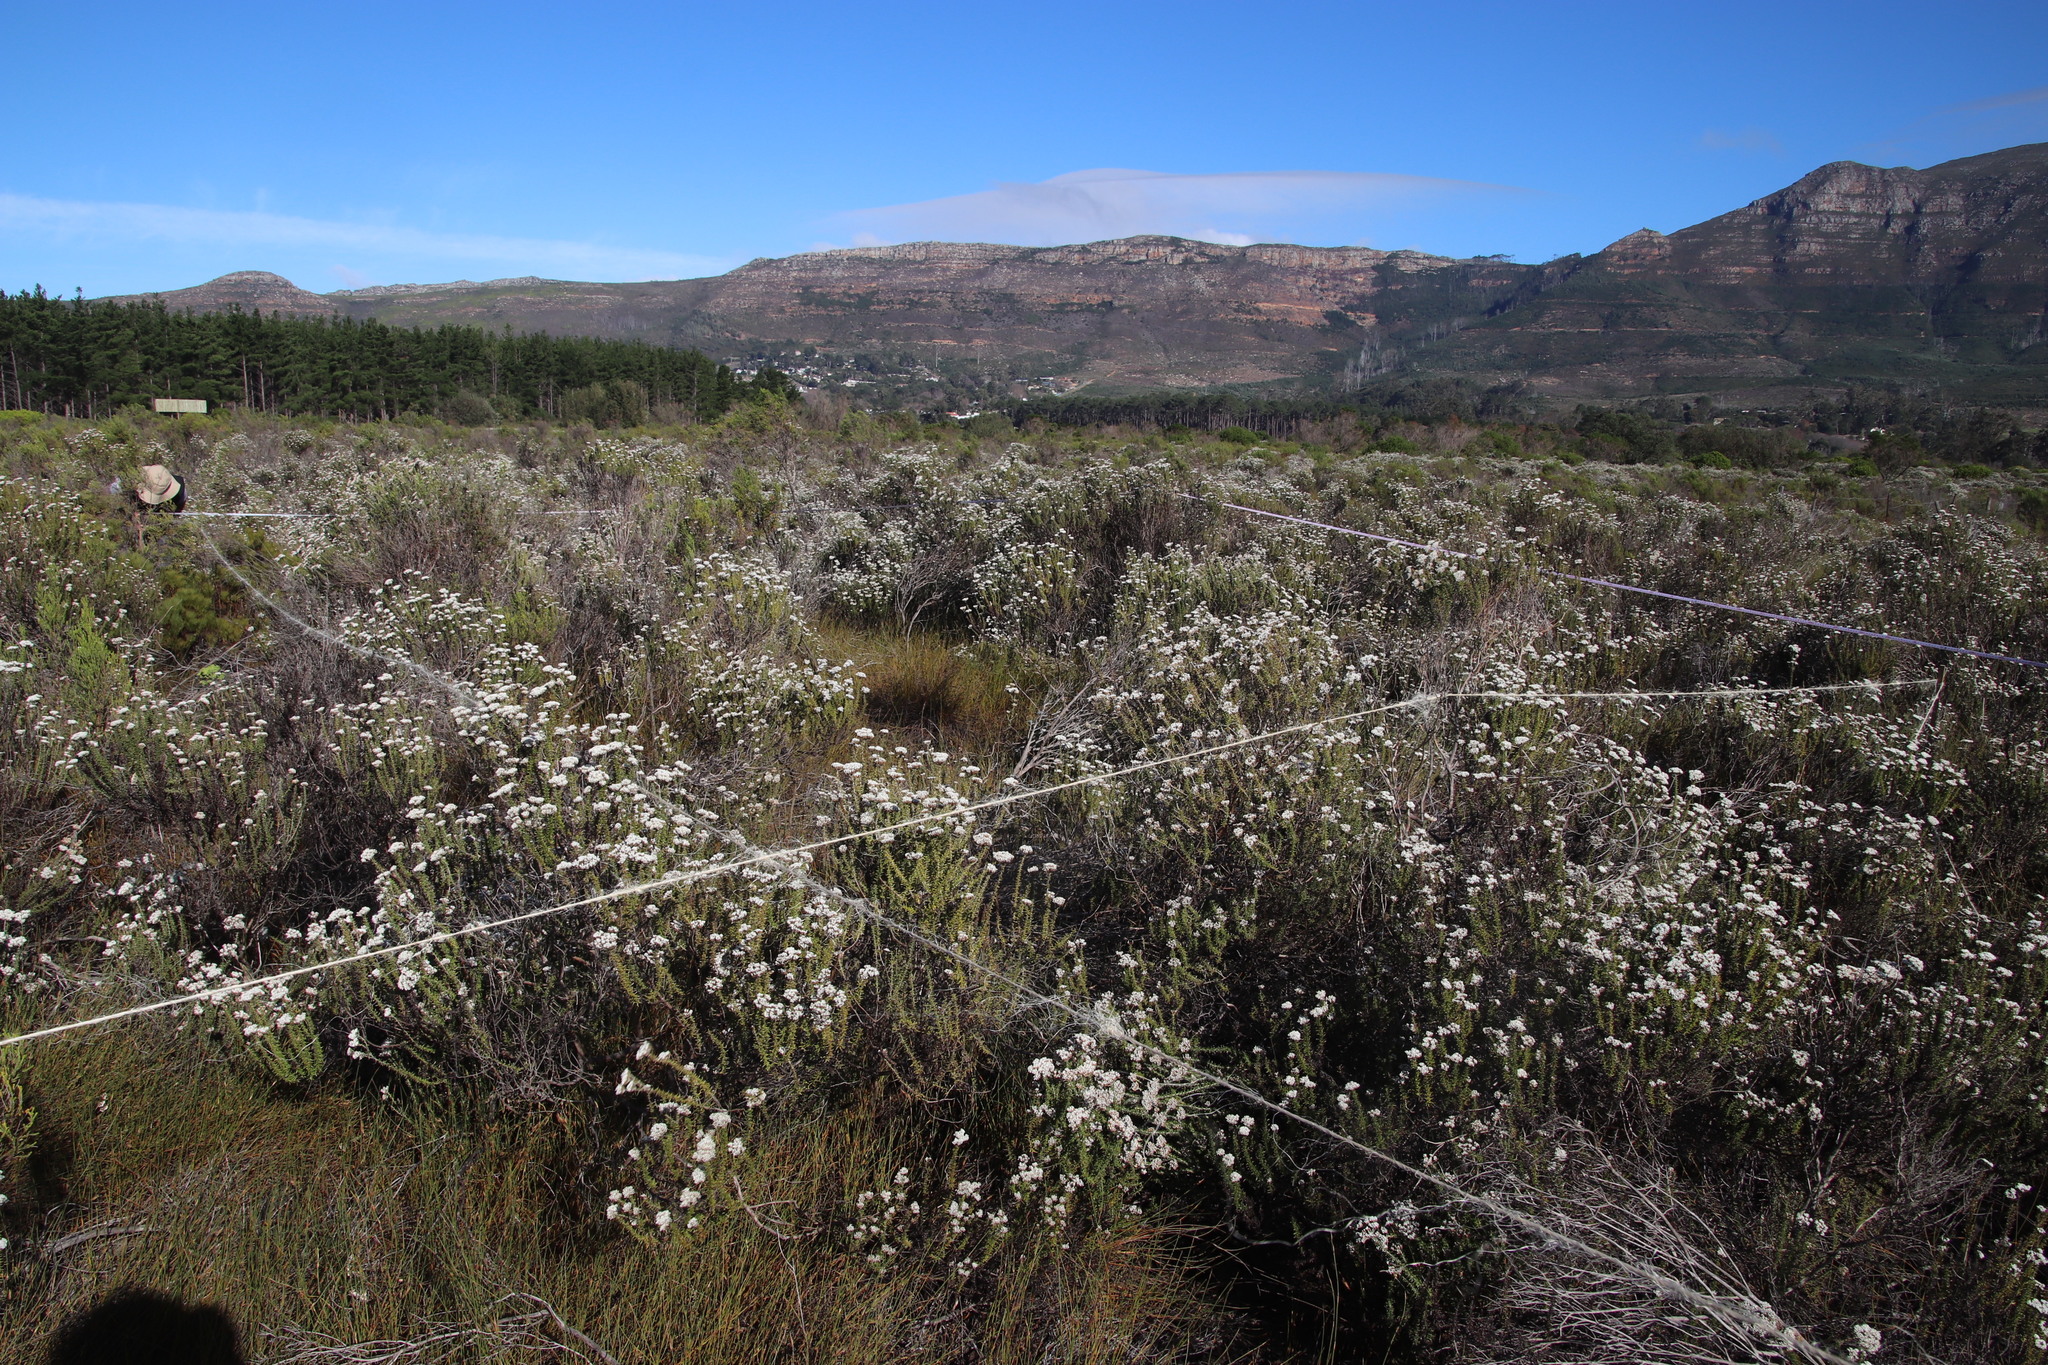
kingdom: Plantae
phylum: Tracheophyta
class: Liliopsida
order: Poales
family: Restionaceae
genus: Willdenowia
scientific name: Willdenowia sulcata
